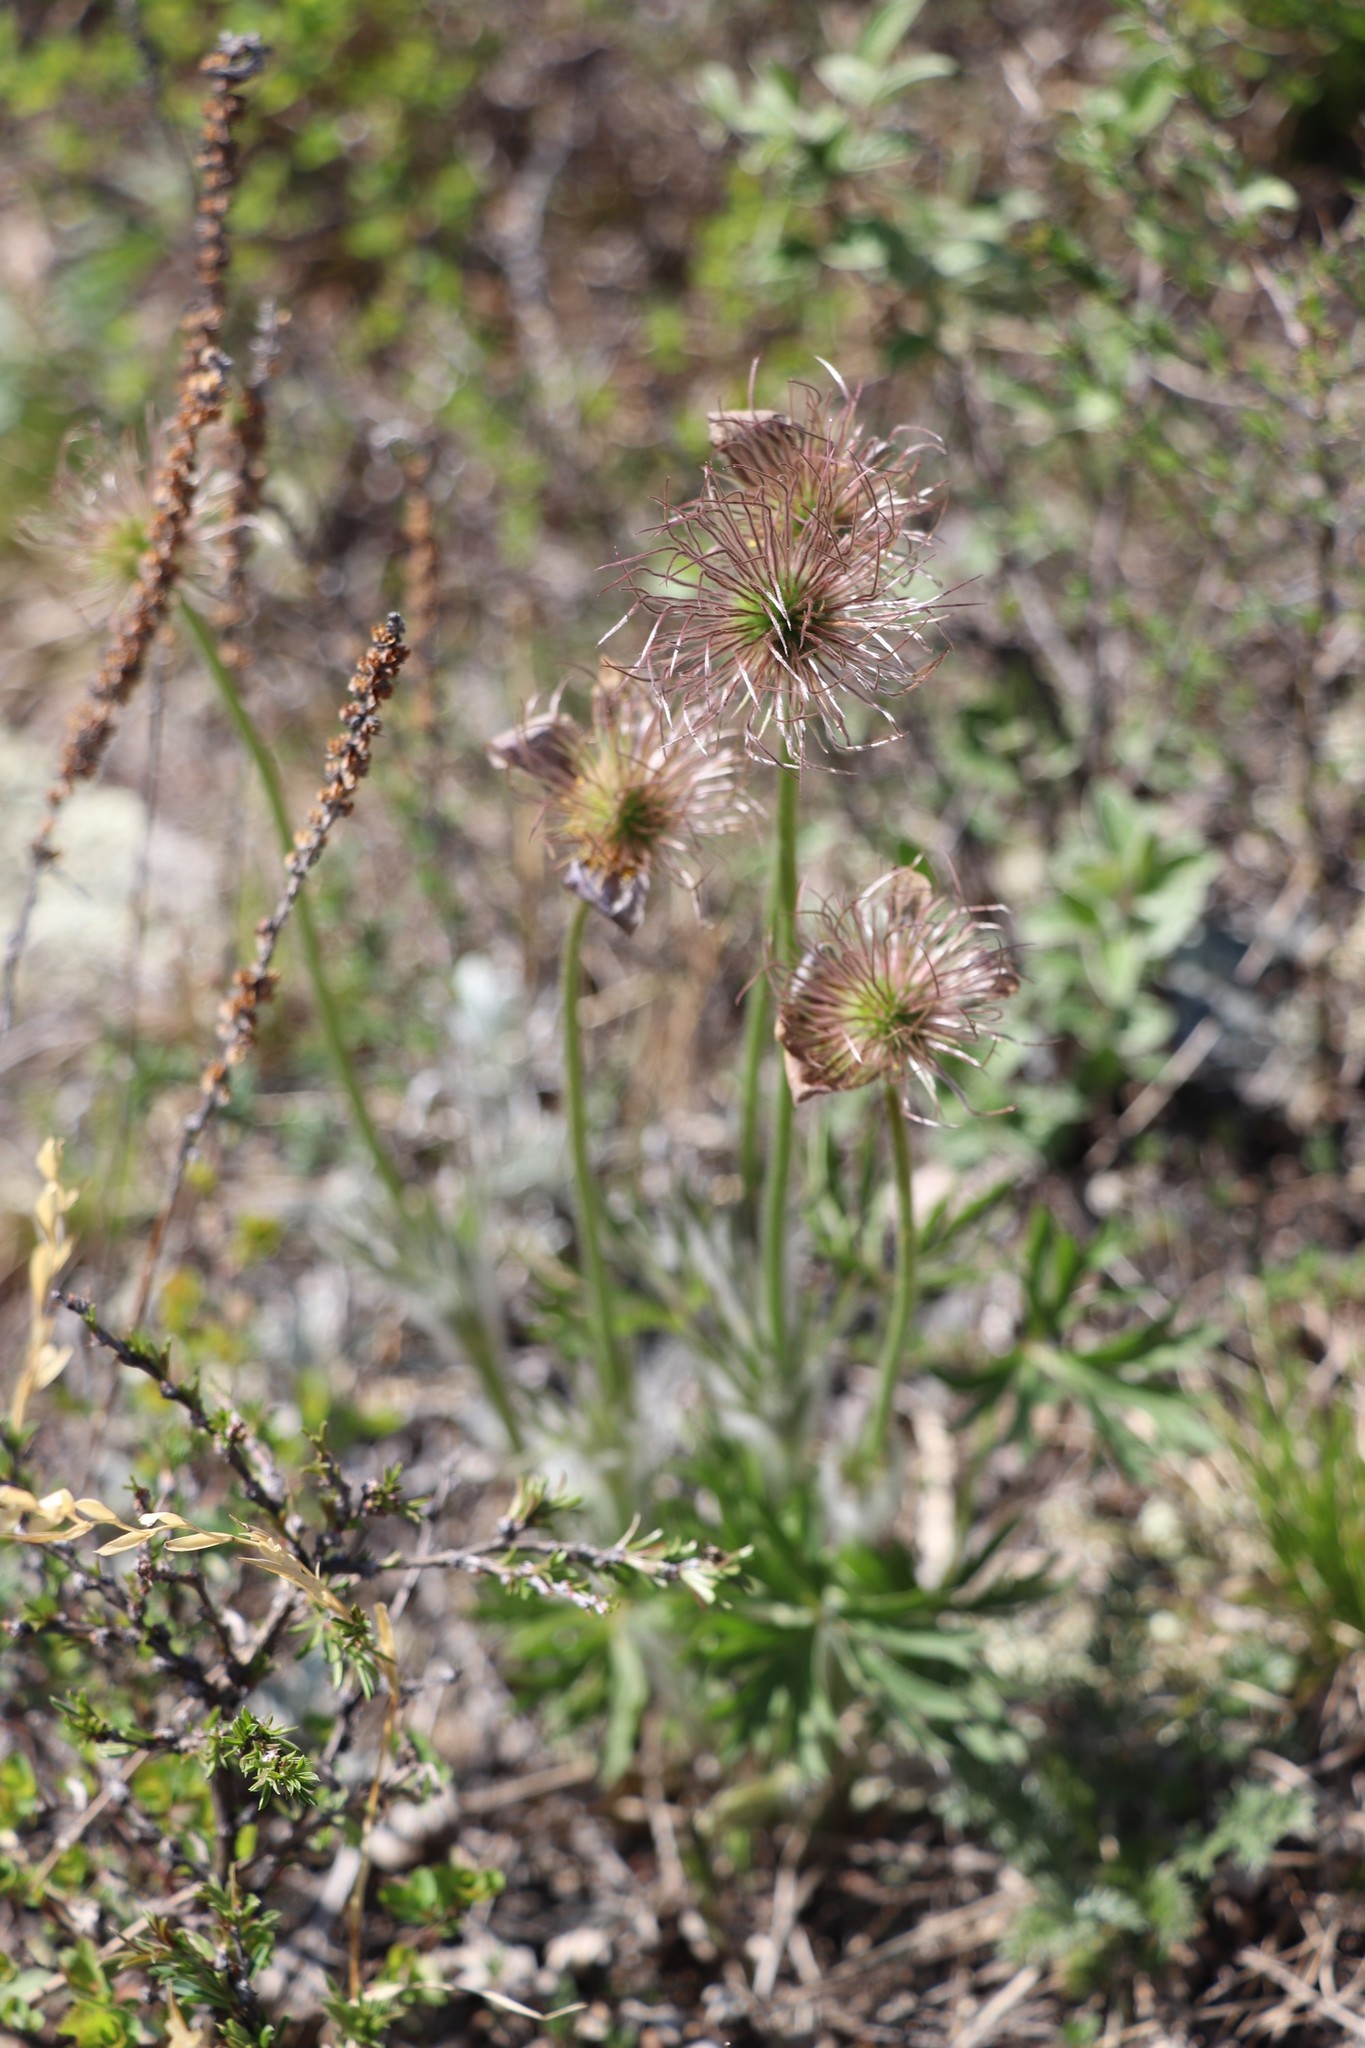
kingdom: Plantae
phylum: Tracheophyta
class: Magnoliopsida
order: Ranunculales
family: Ranunculaceae
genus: Pulsatilla
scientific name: Pulsatilla patens
